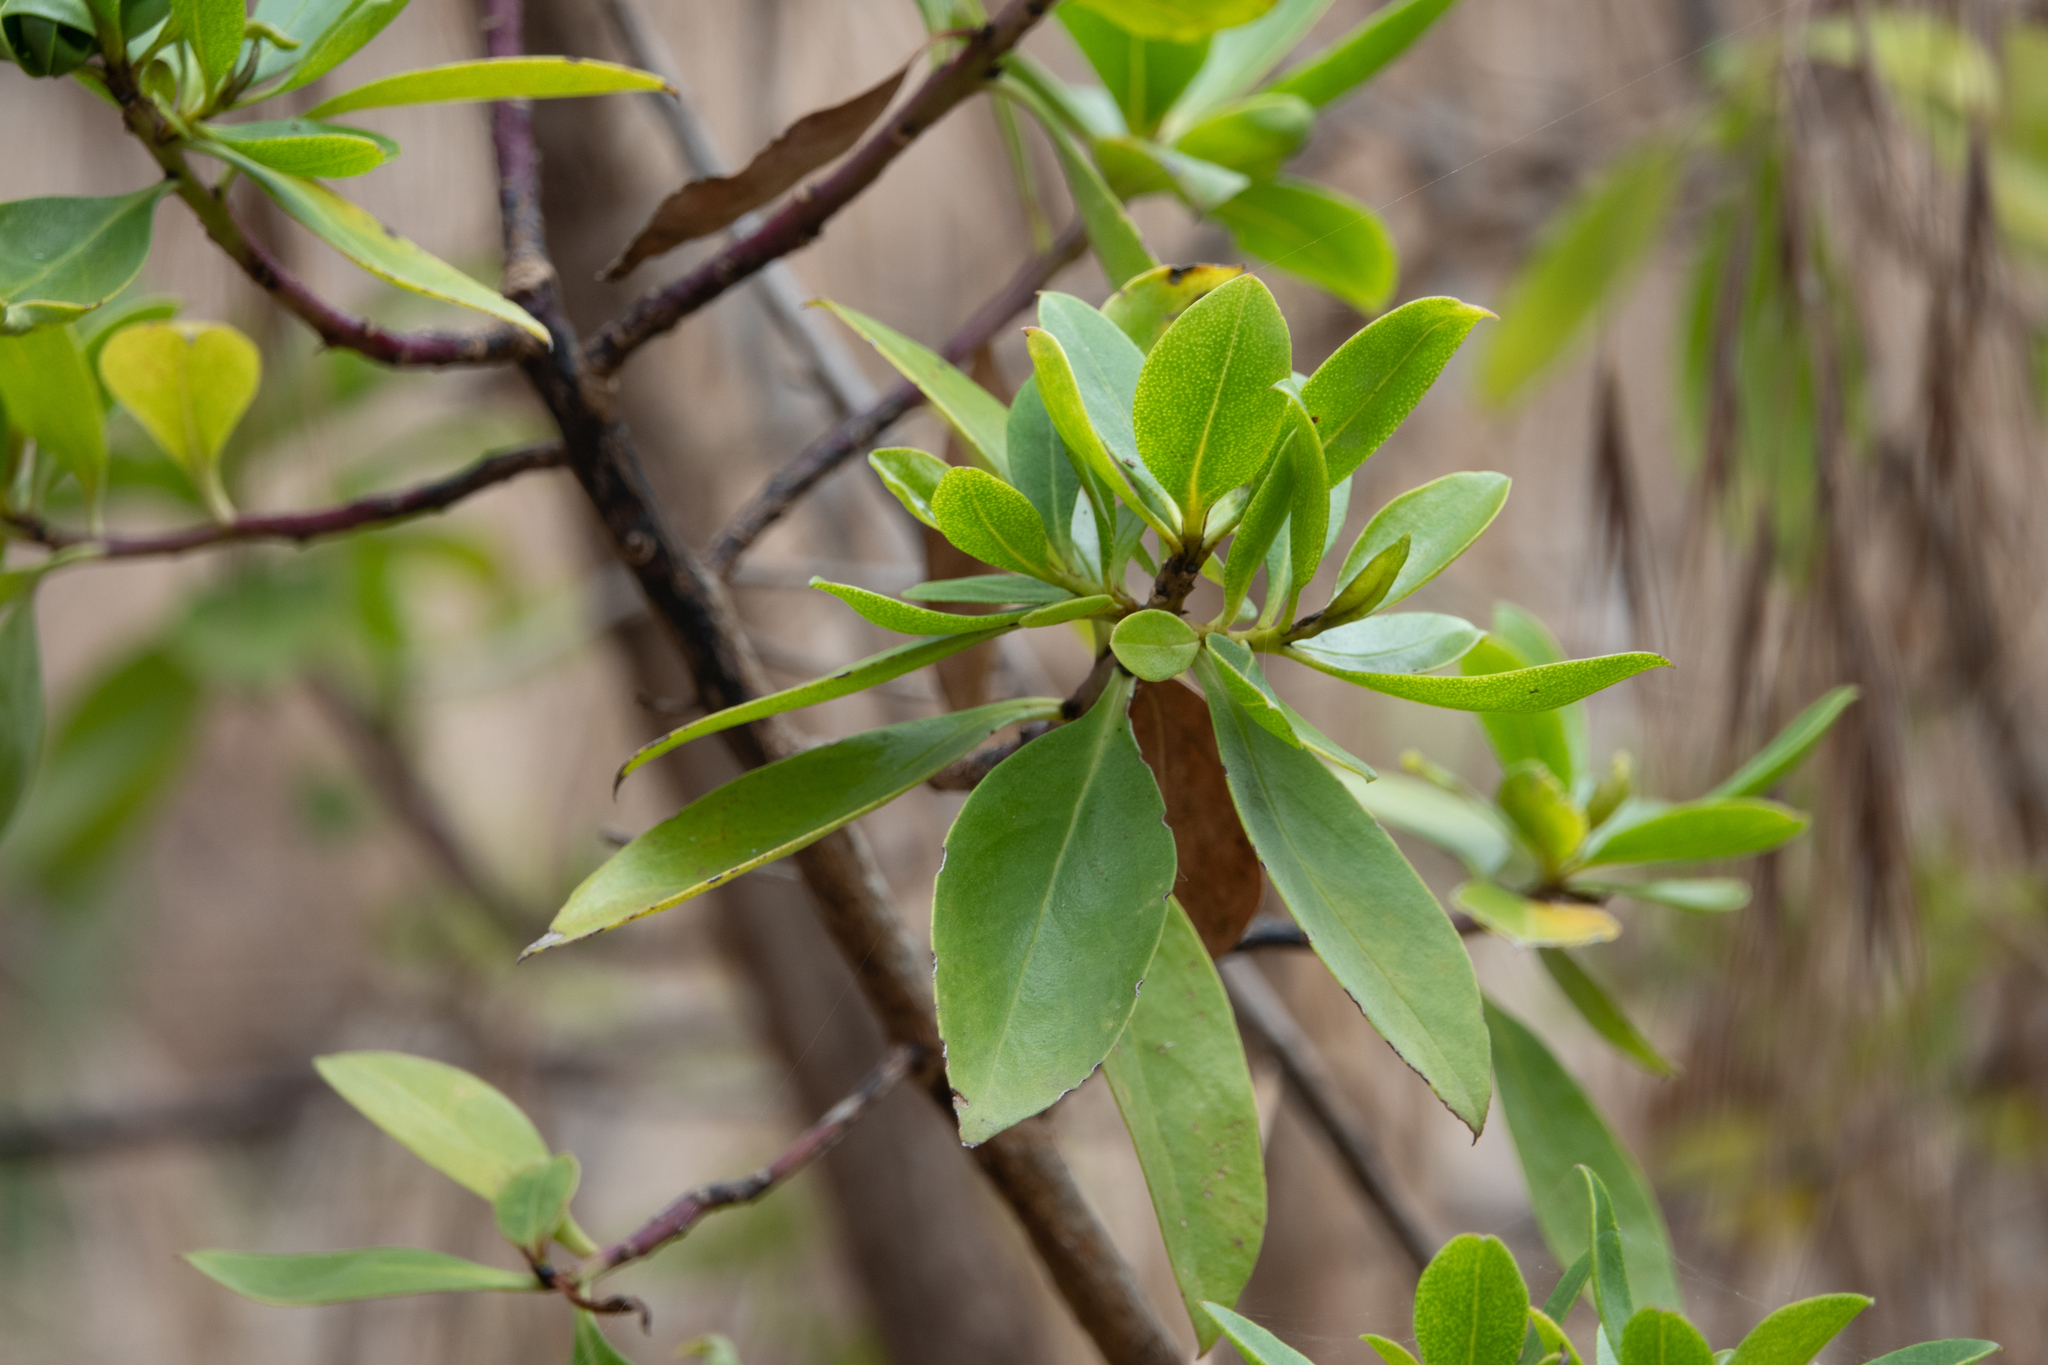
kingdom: Plantae
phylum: Tracheophyta
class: Magnoliopsida
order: Lamiales
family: Scrophulariaceae
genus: Myoporum
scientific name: Myoporum laetum
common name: Ngaio tree
